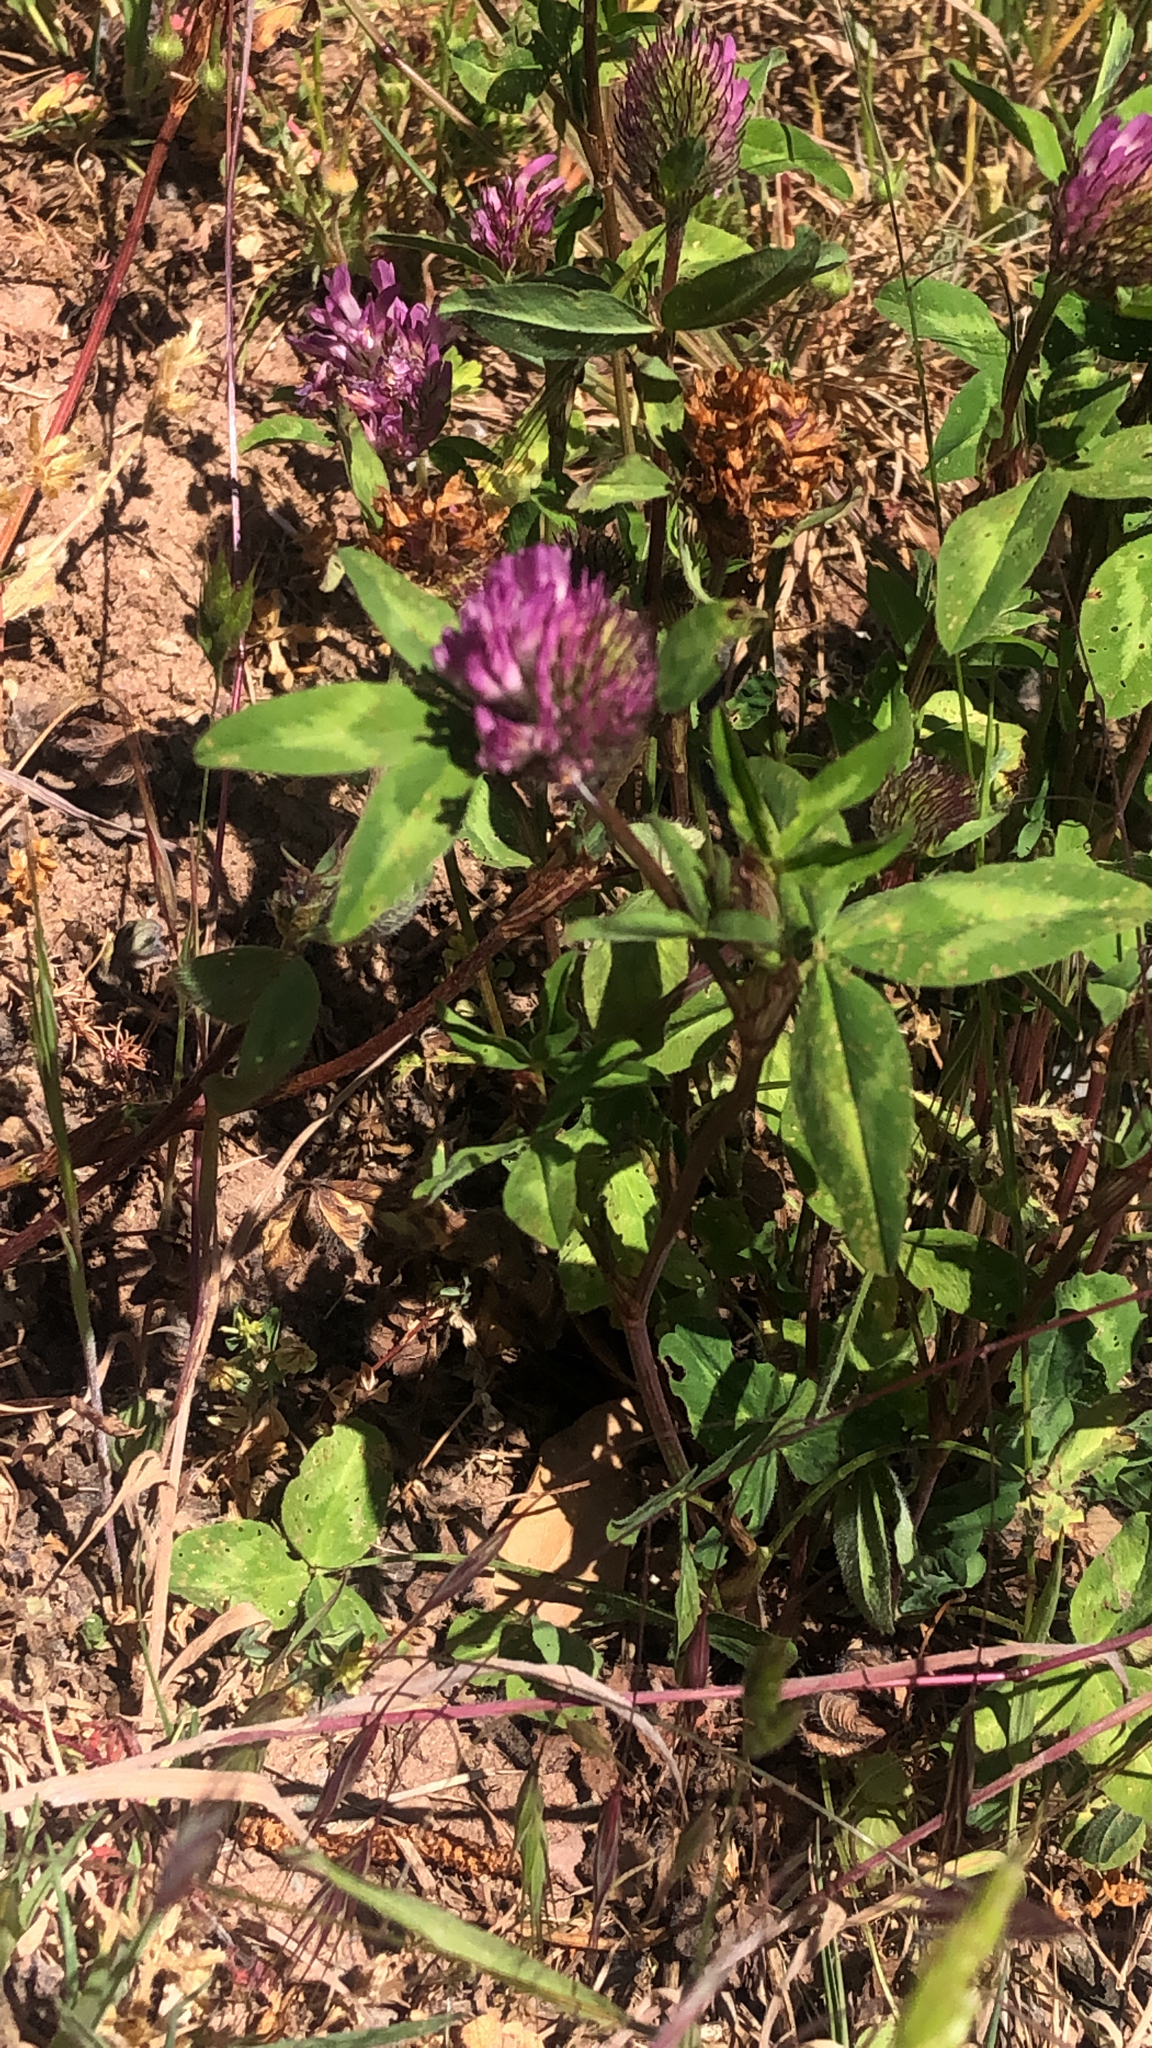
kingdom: Plantae
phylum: Tracheophyta
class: Magnoliopsida
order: Fabales
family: Fabaceae
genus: Trifolium
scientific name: Trifolium pratense
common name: Red clover
